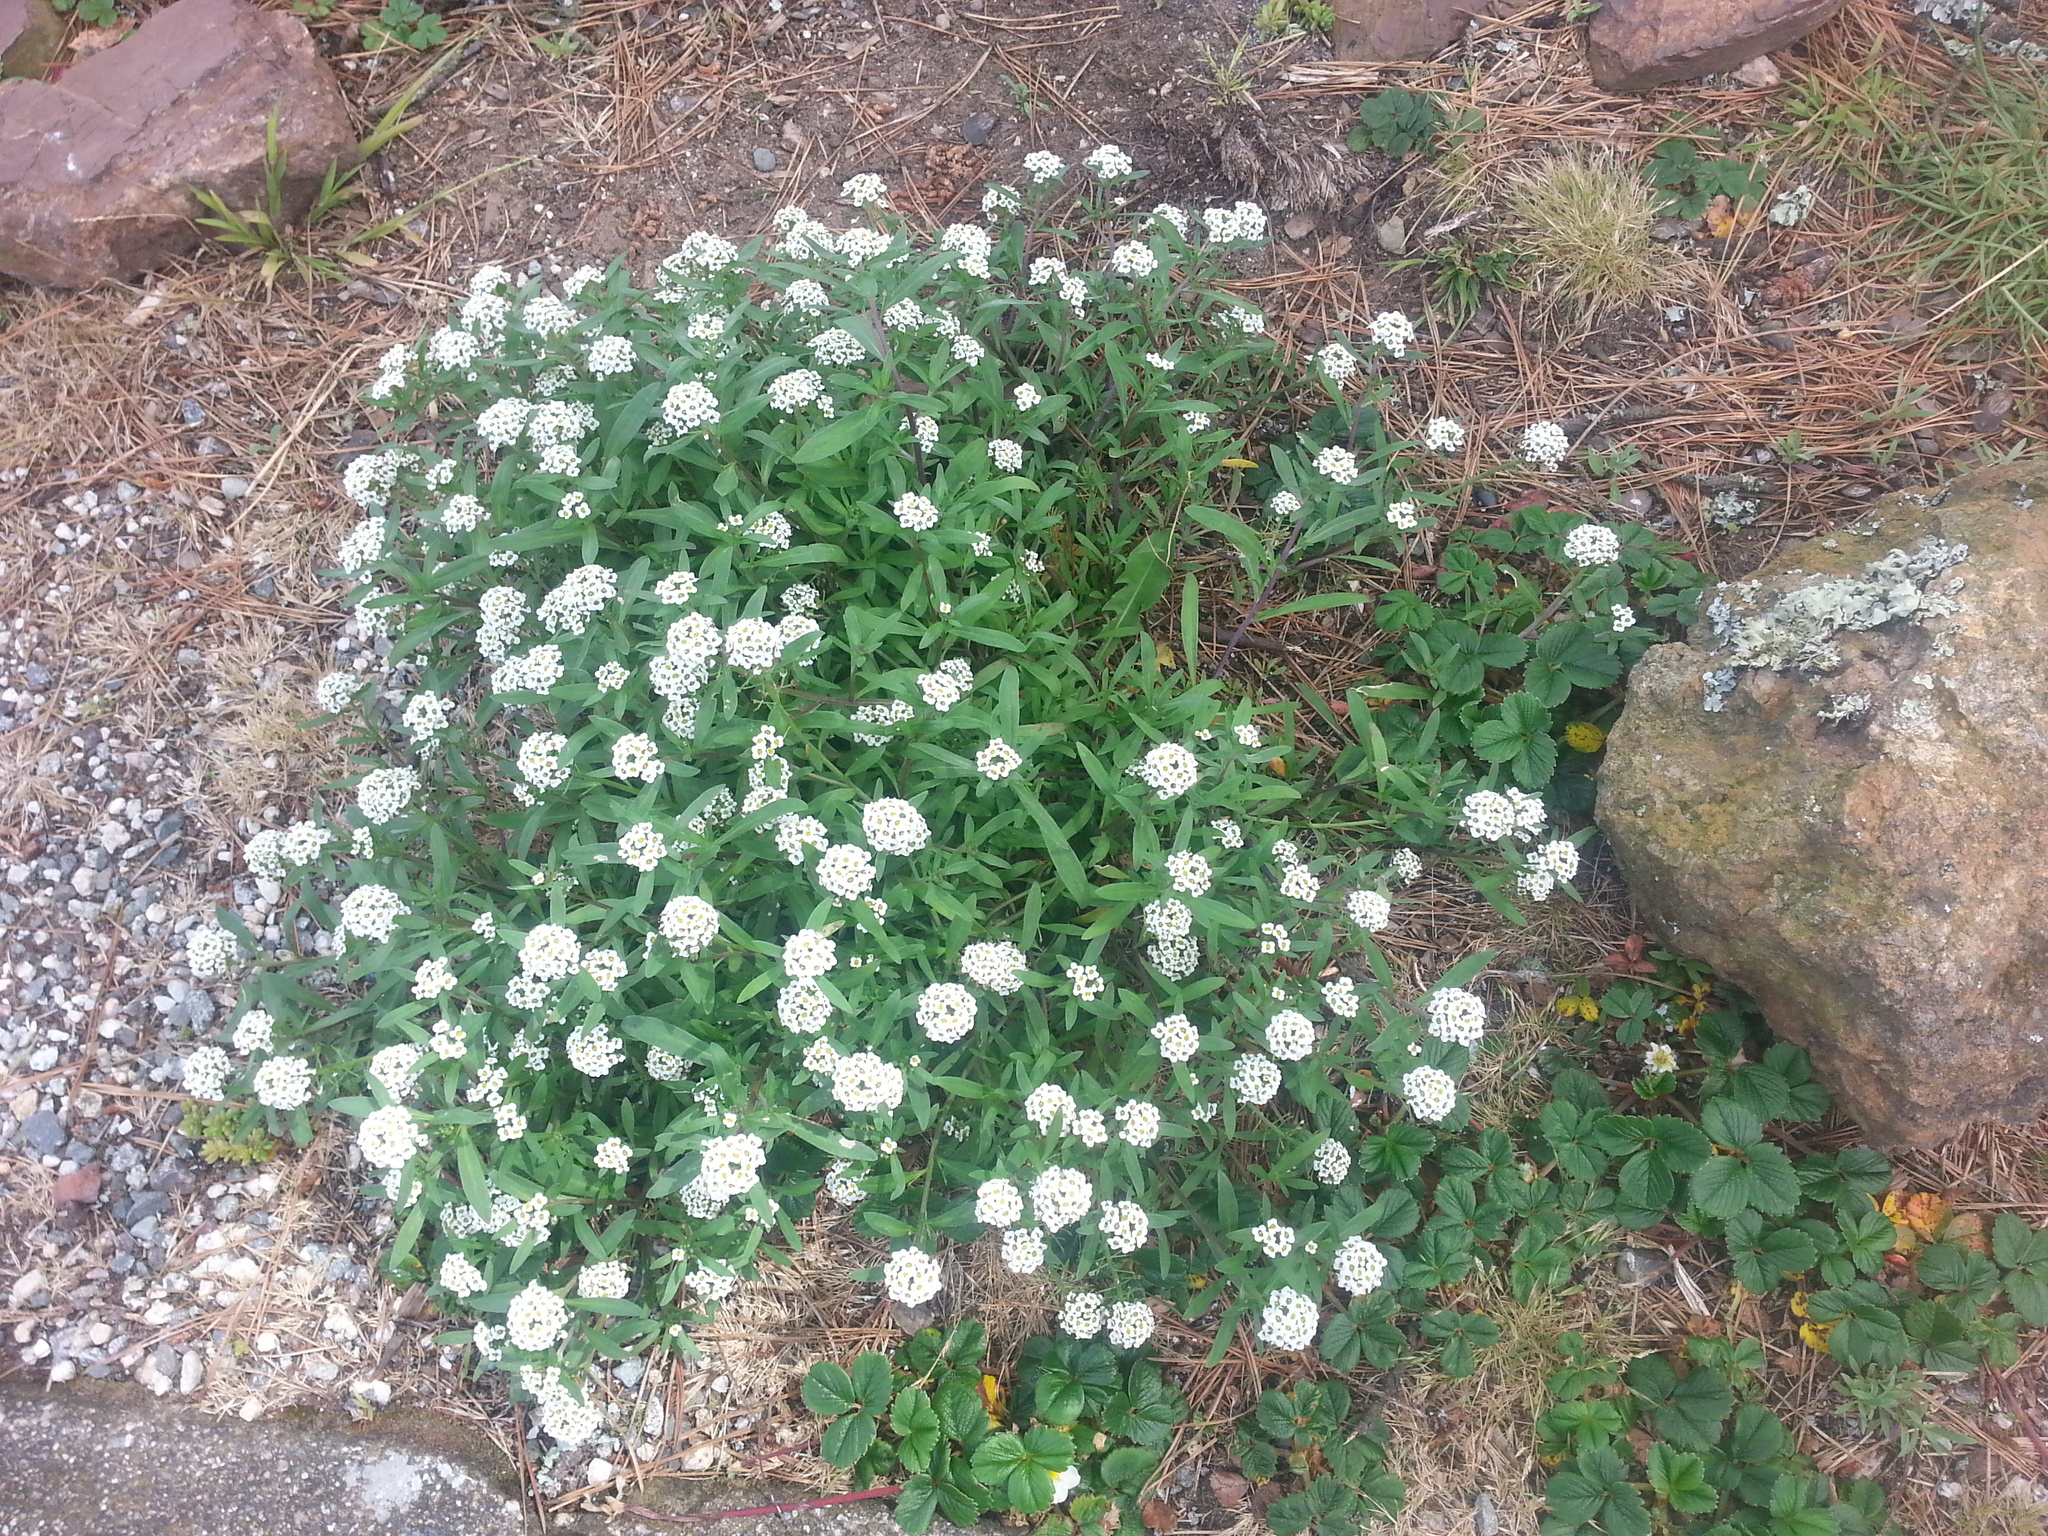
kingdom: Plantae
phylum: Tracheophyta
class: Magnoliopsida
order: Brassicales
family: Brassicaceae
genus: Lobularia
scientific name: Lobularia maritima
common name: Sweet alison
